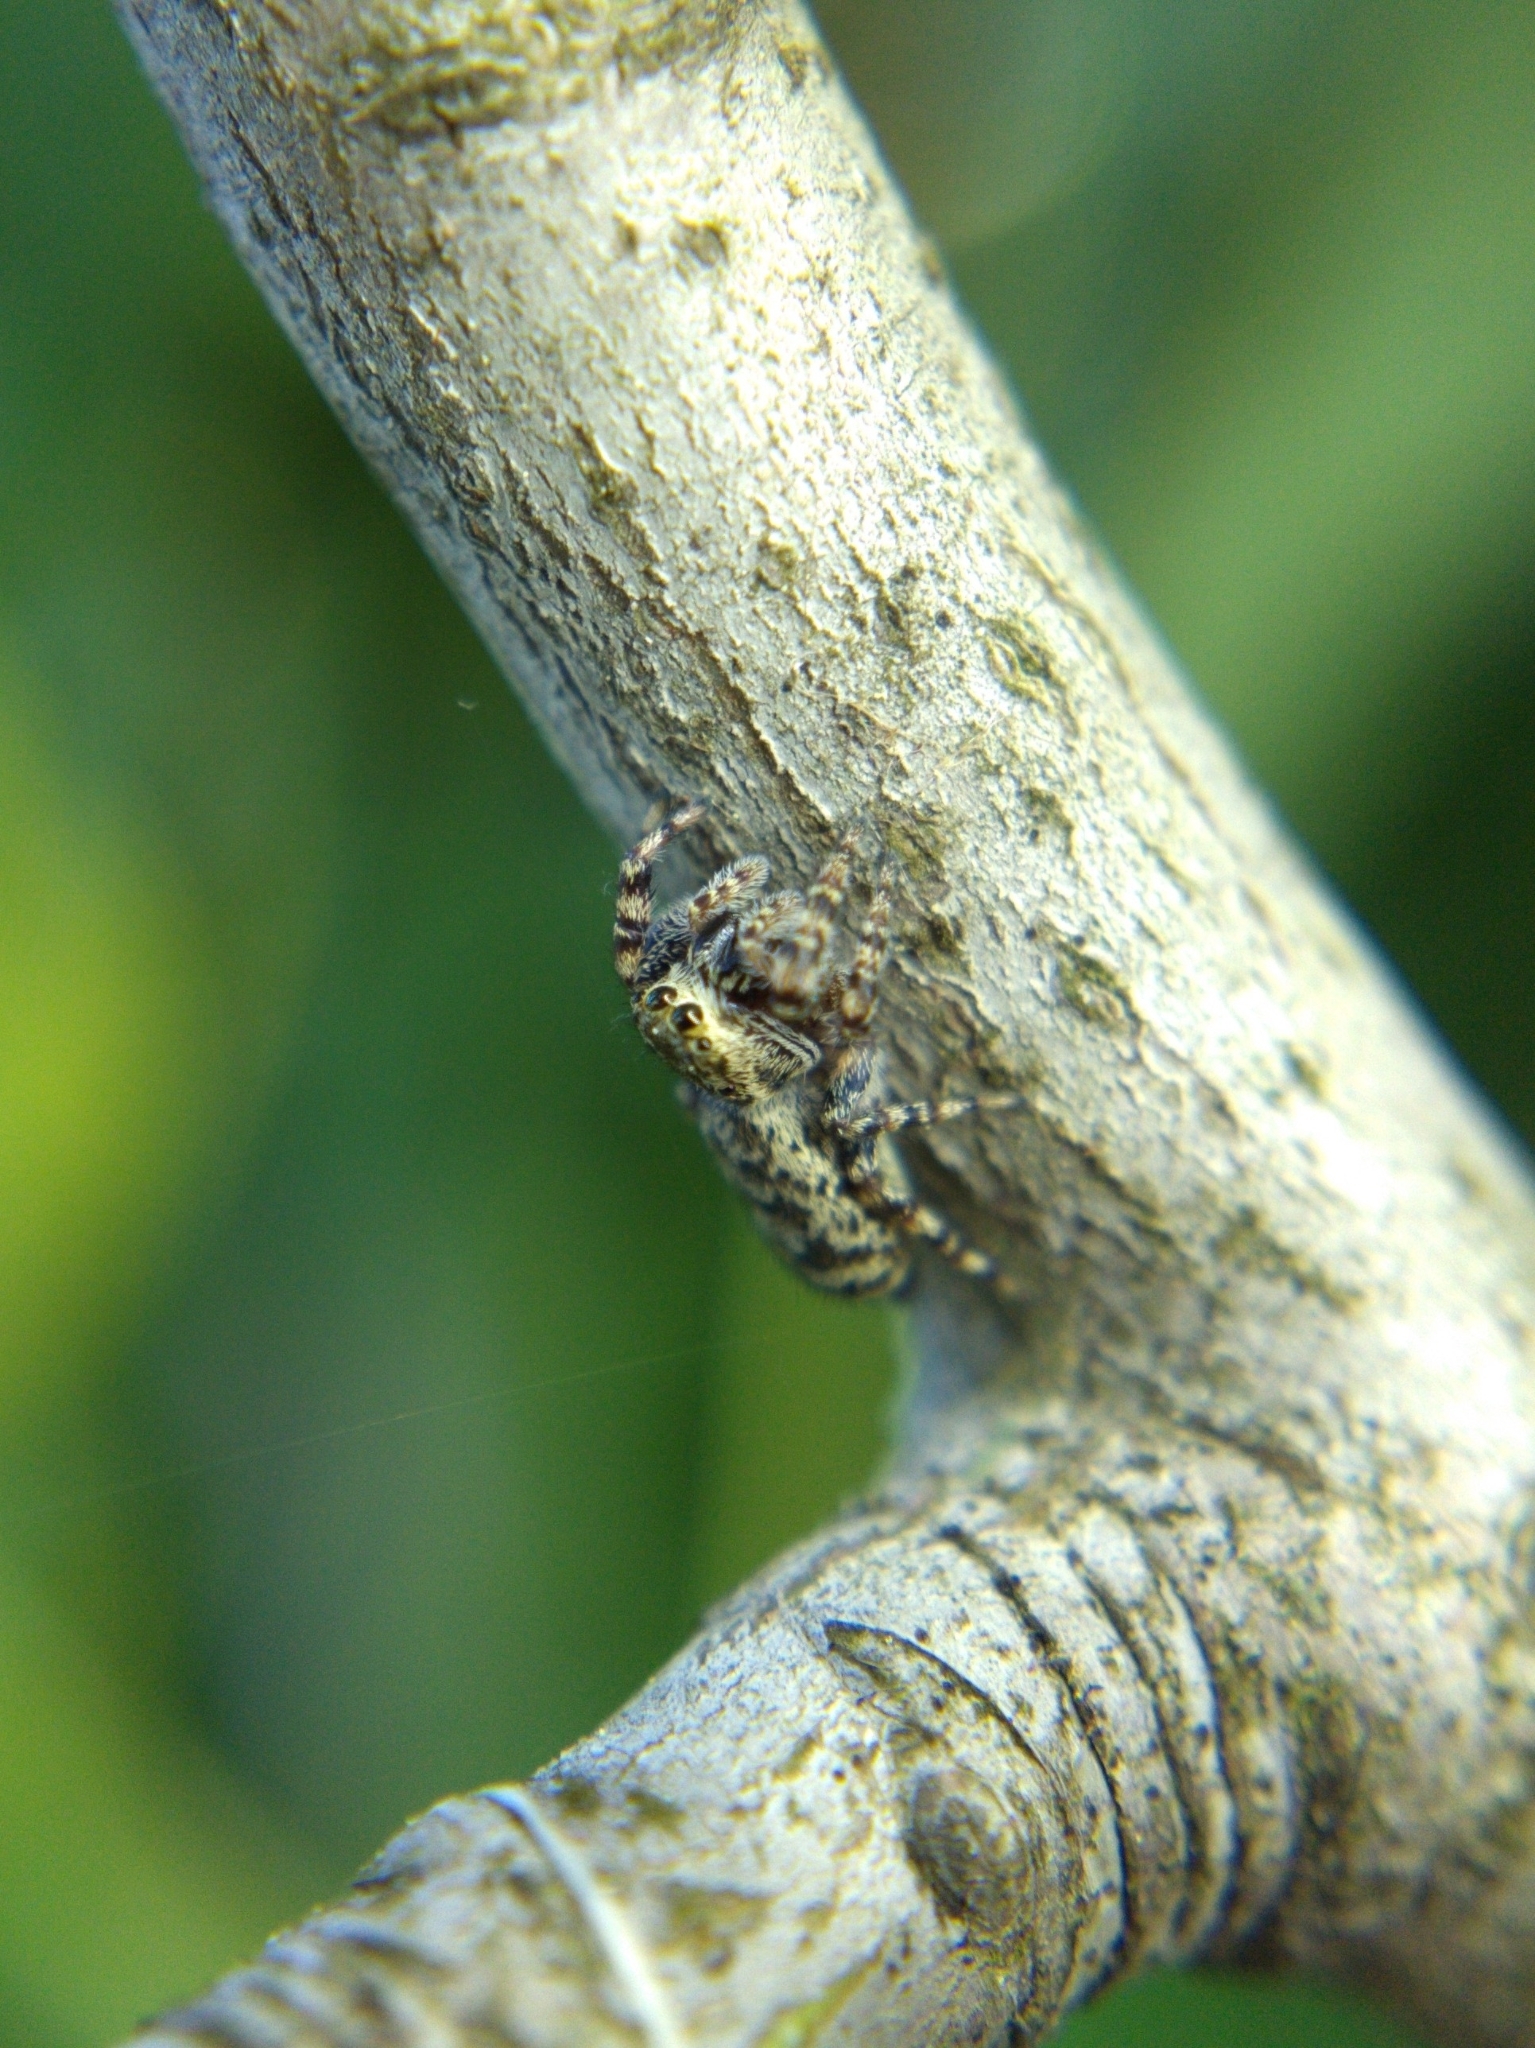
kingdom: Animalia
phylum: Arthropoda
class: Arachnida
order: Araneae
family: Salticidae
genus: Pelegrina
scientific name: Pelegrina galathea
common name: Jumping spiders
